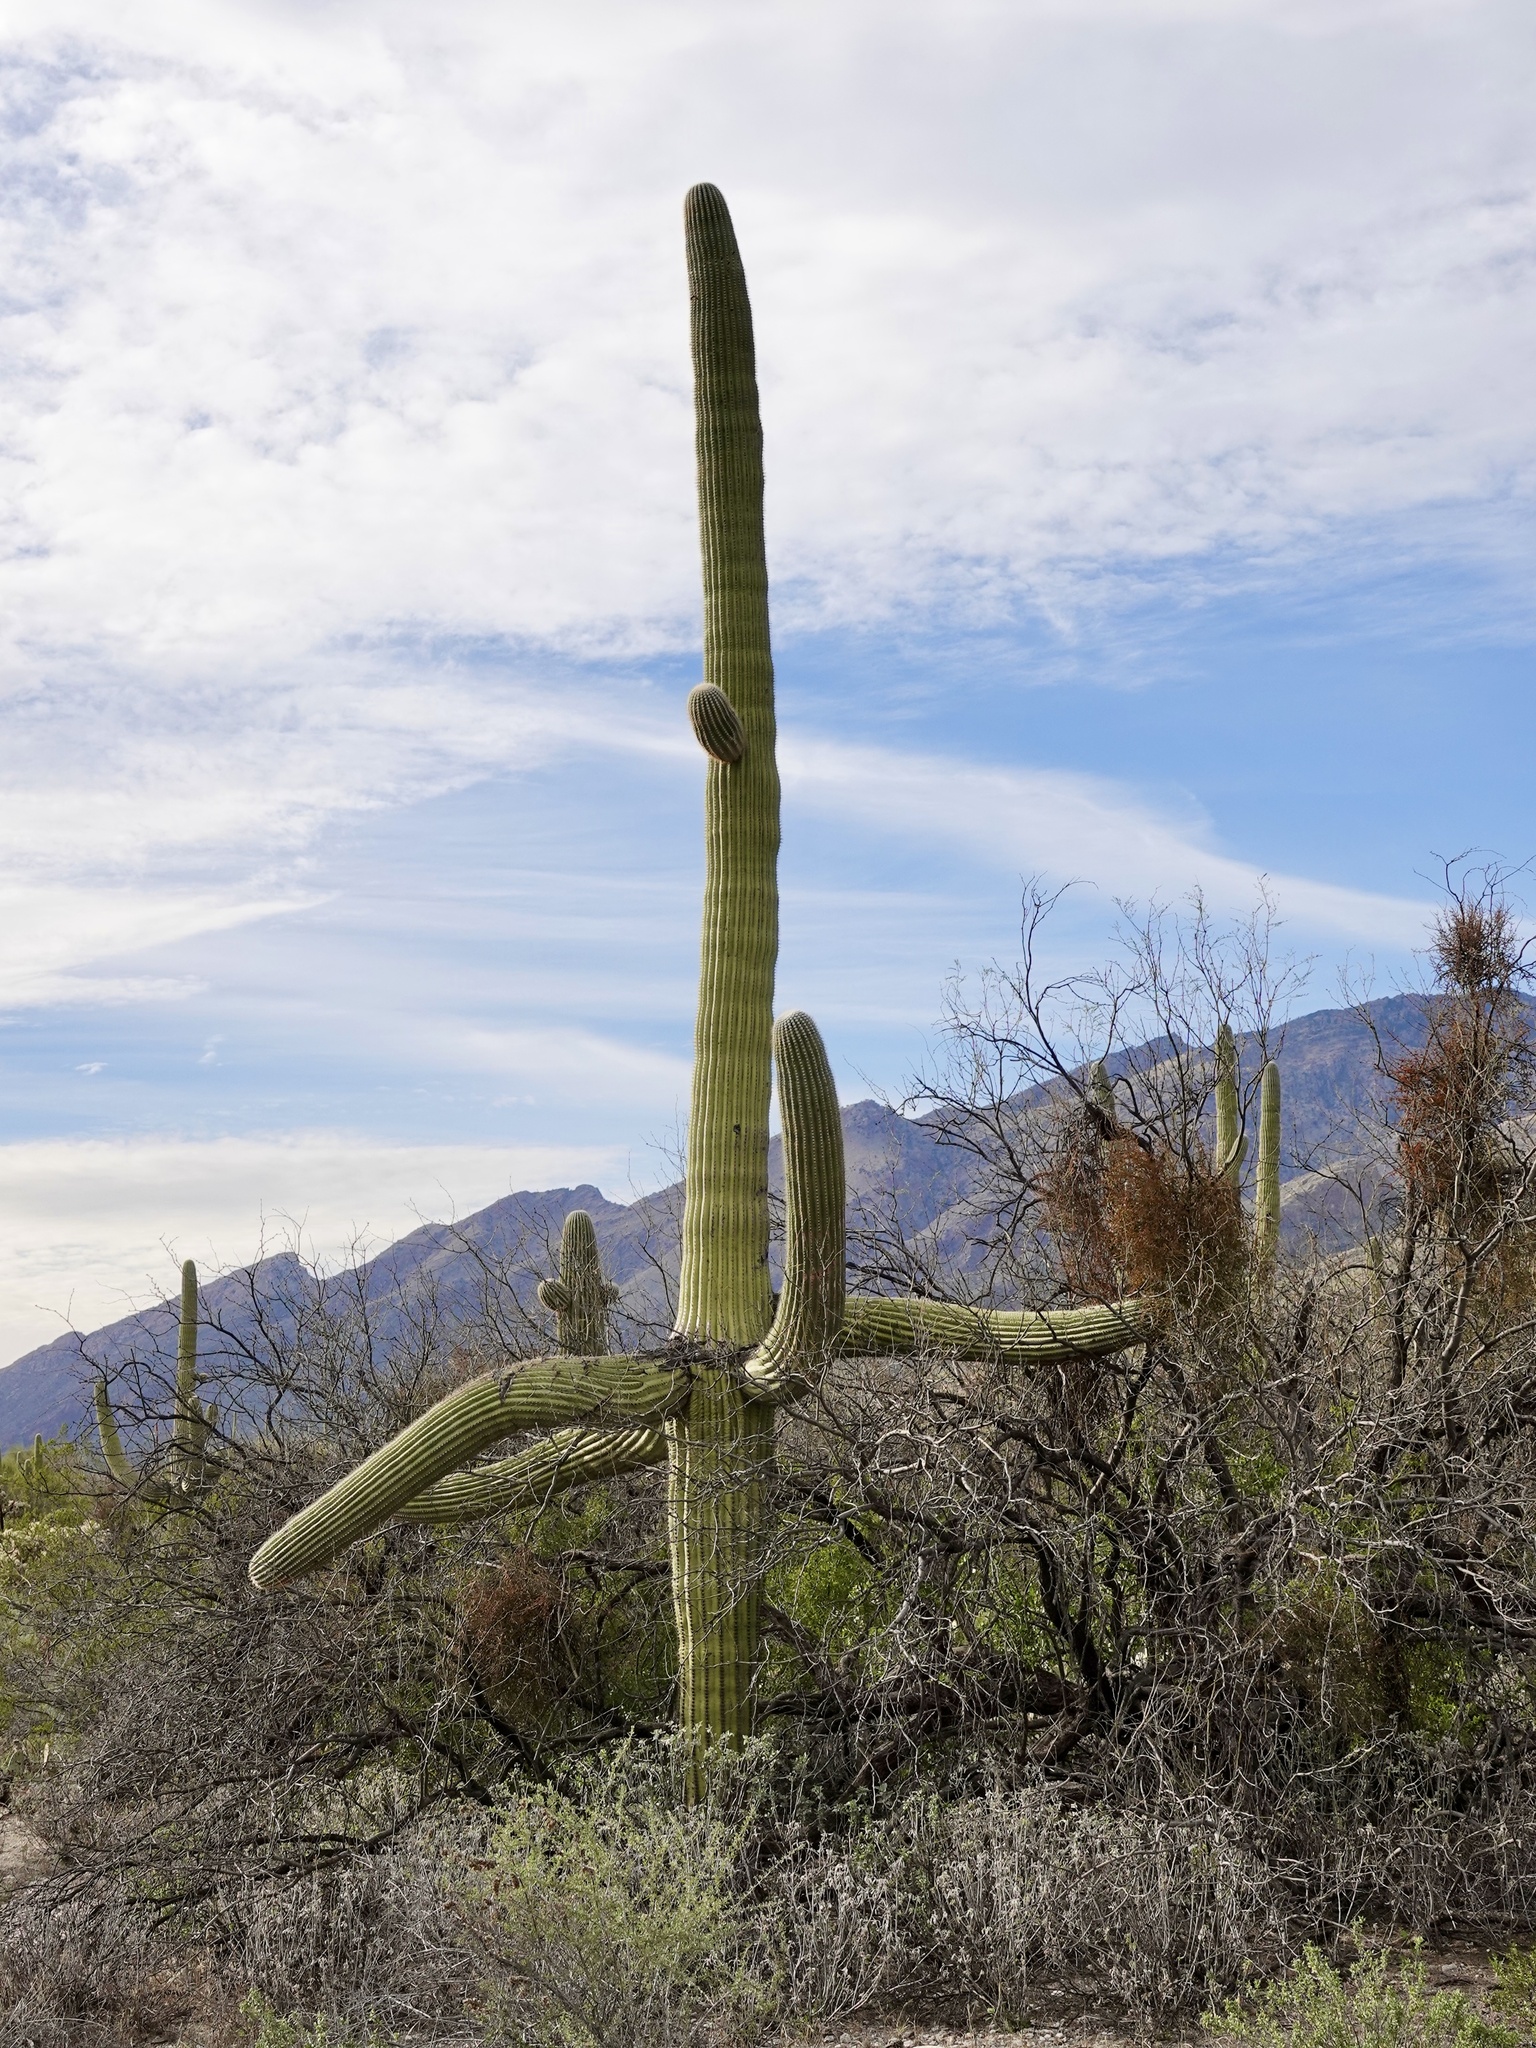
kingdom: Plantae
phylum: Tracheophyta
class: Magnoliopsida
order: Caryophyllales
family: Cactaceae
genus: Carnegiea
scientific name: Carnegiea gigantea
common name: Saguaro
